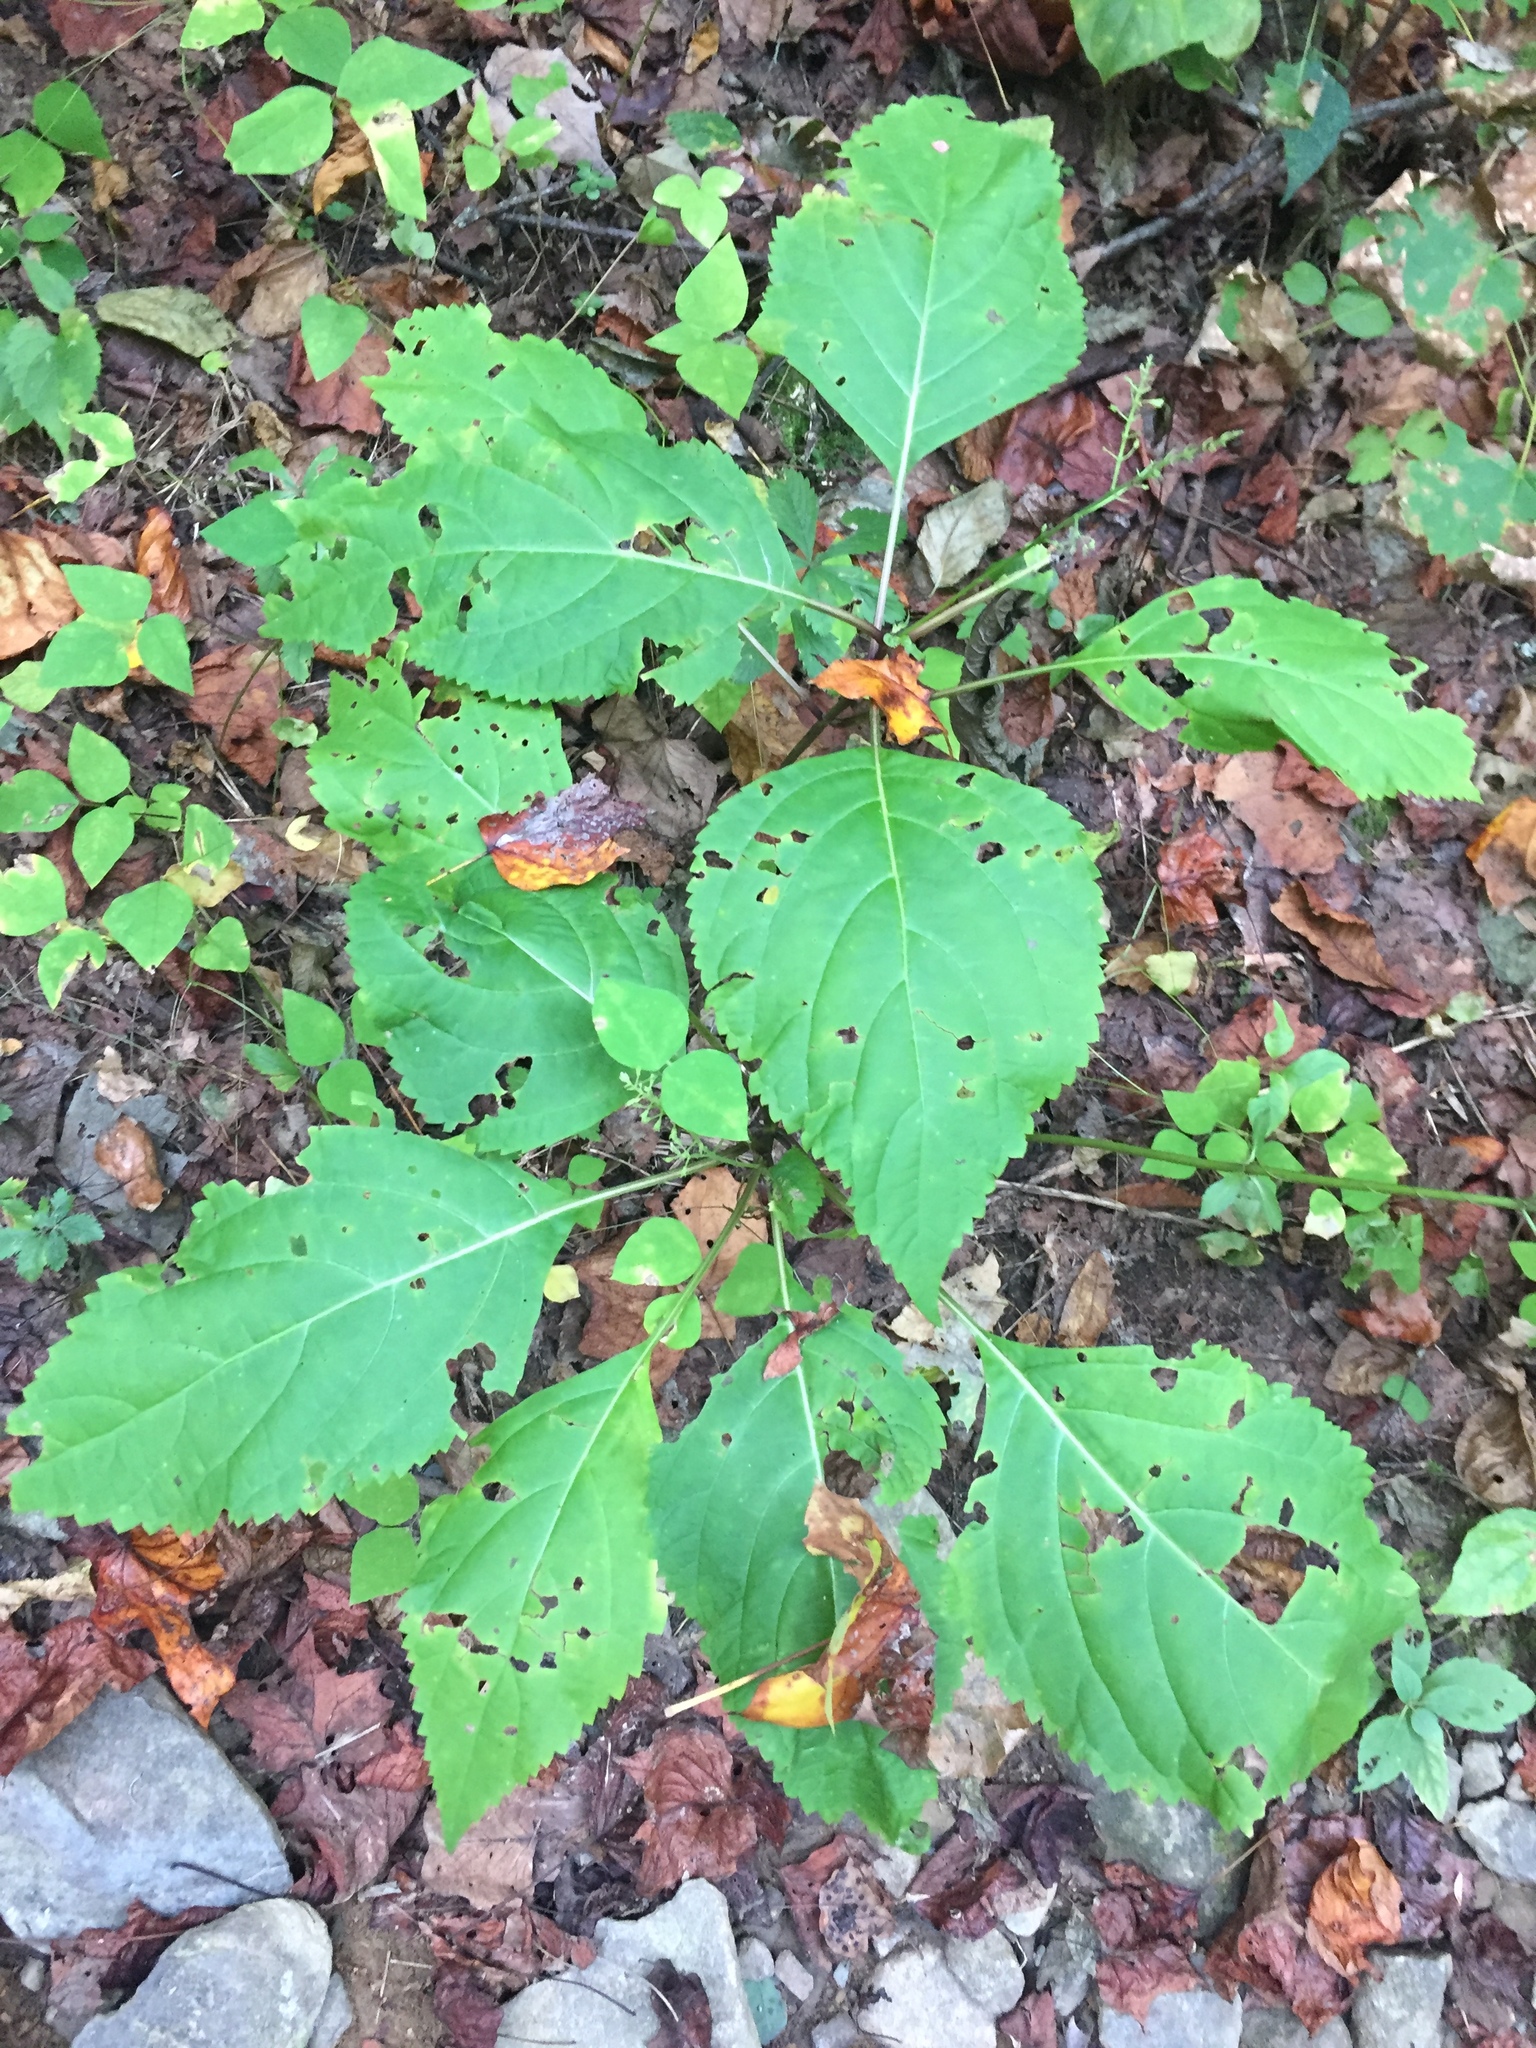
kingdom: Plantae
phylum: Tracheophyta
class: Magnoliopsida
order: Lamiales
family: Lamiaceae
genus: Collinsonia
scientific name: Collinsonia canadensis
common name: Northern horsebalm
